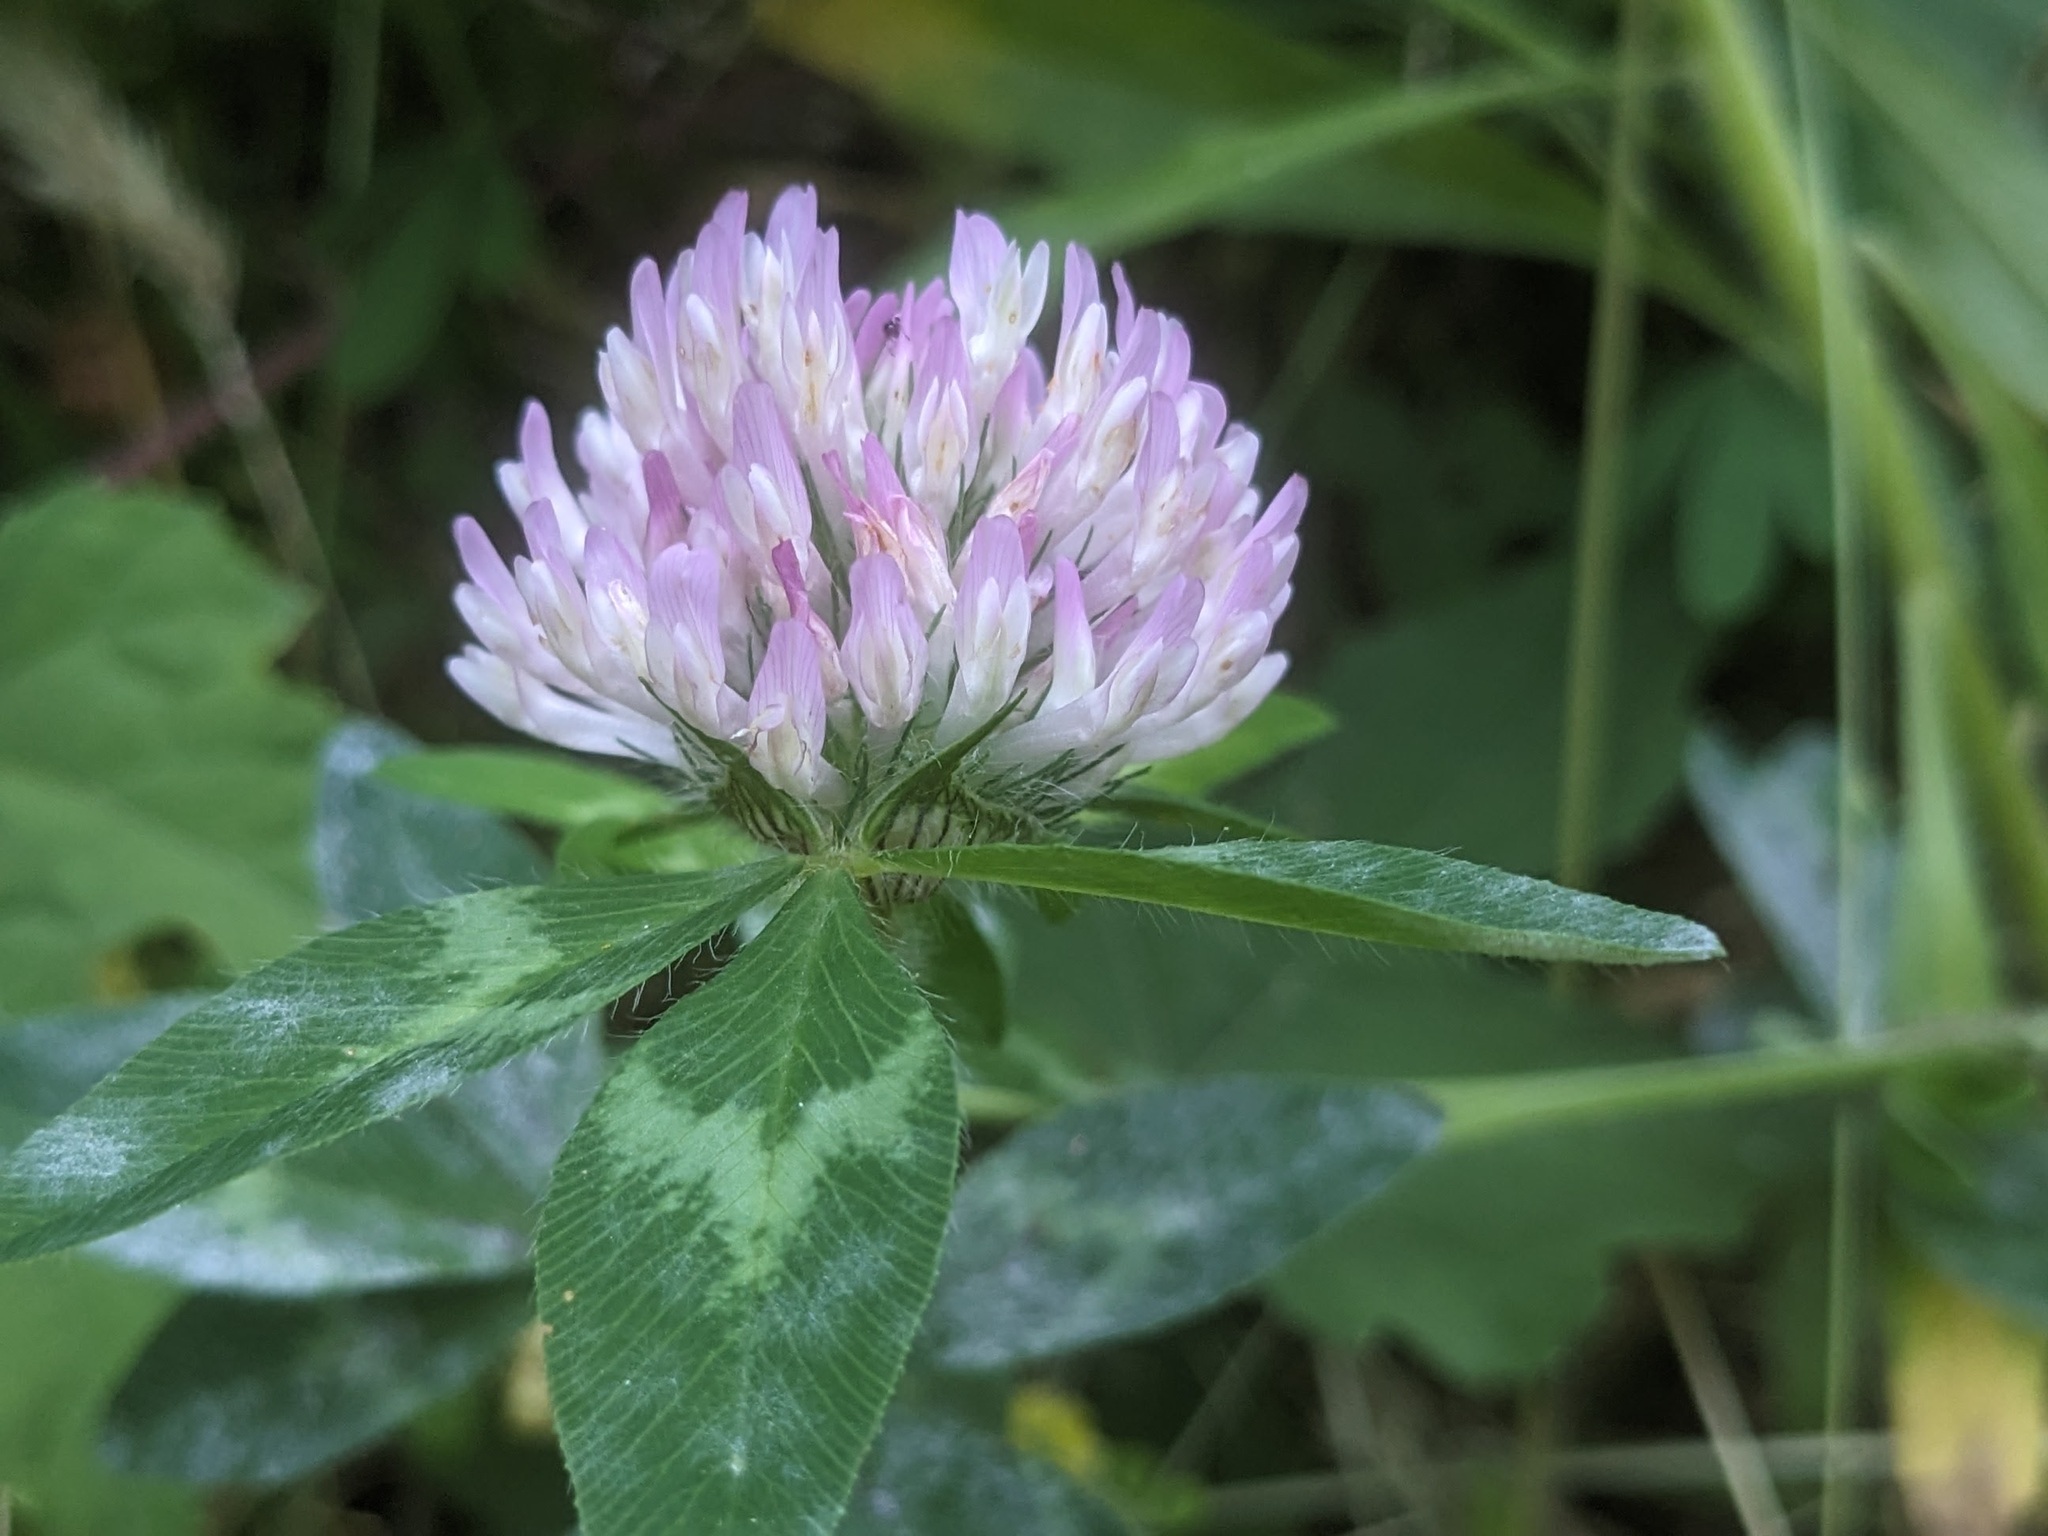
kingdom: Plantae
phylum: Tracheophyta
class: Magnoliopsida
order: Fabales
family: Fabaceae
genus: Trifolium
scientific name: Trifolium pratense
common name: Red clover
